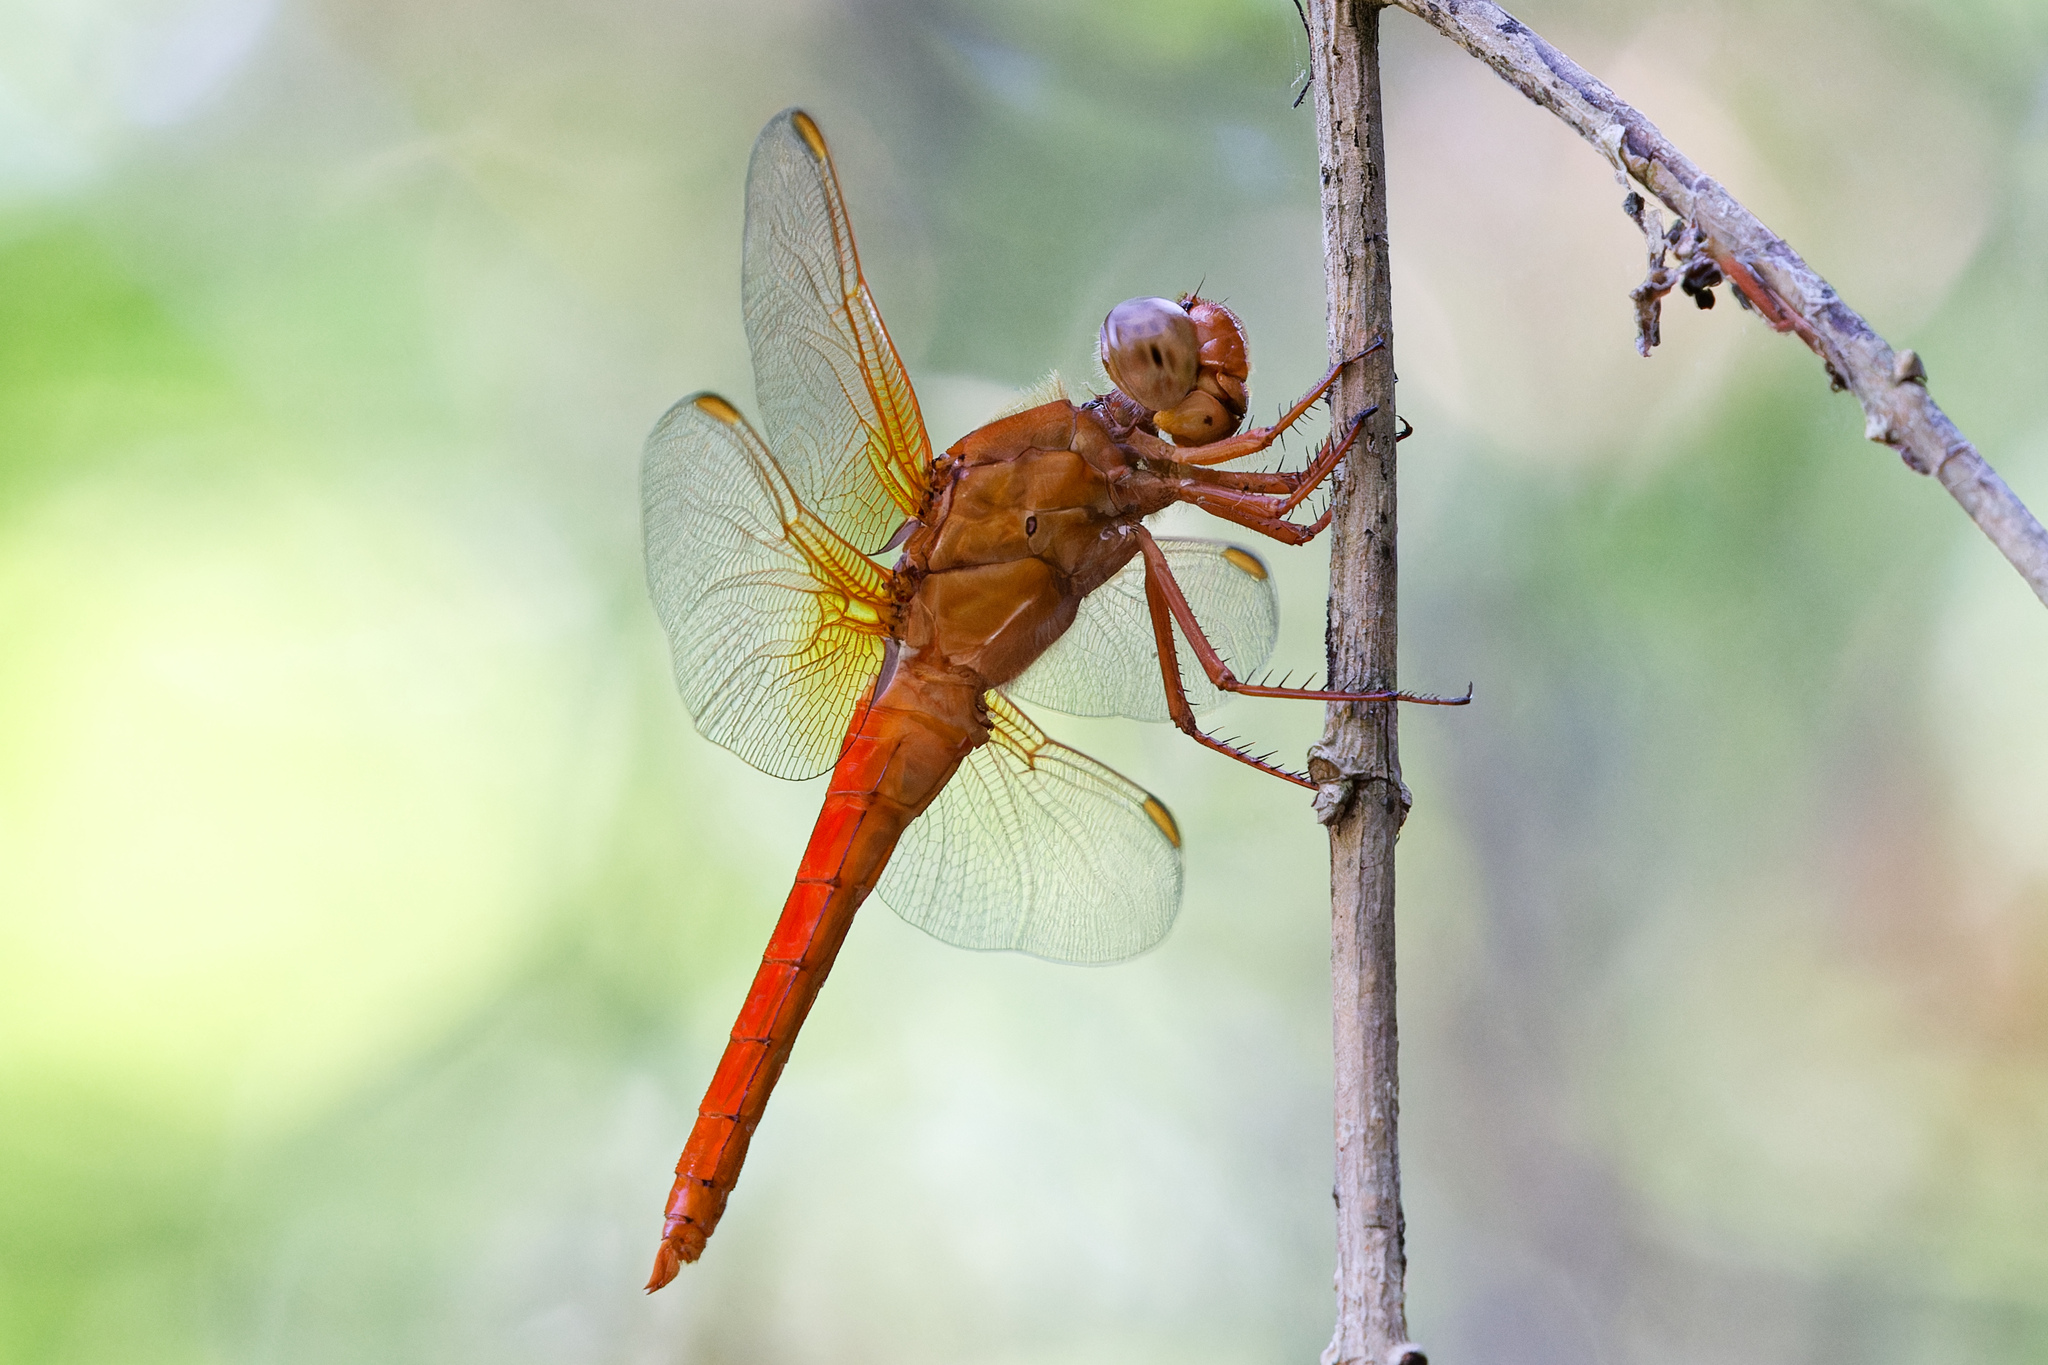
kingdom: Animalia
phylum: Arthropoda
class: Insecta
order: Odonata
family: Libellulidae
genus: Libellula
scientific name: Libellula croceipennis
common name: Neon skimmer
